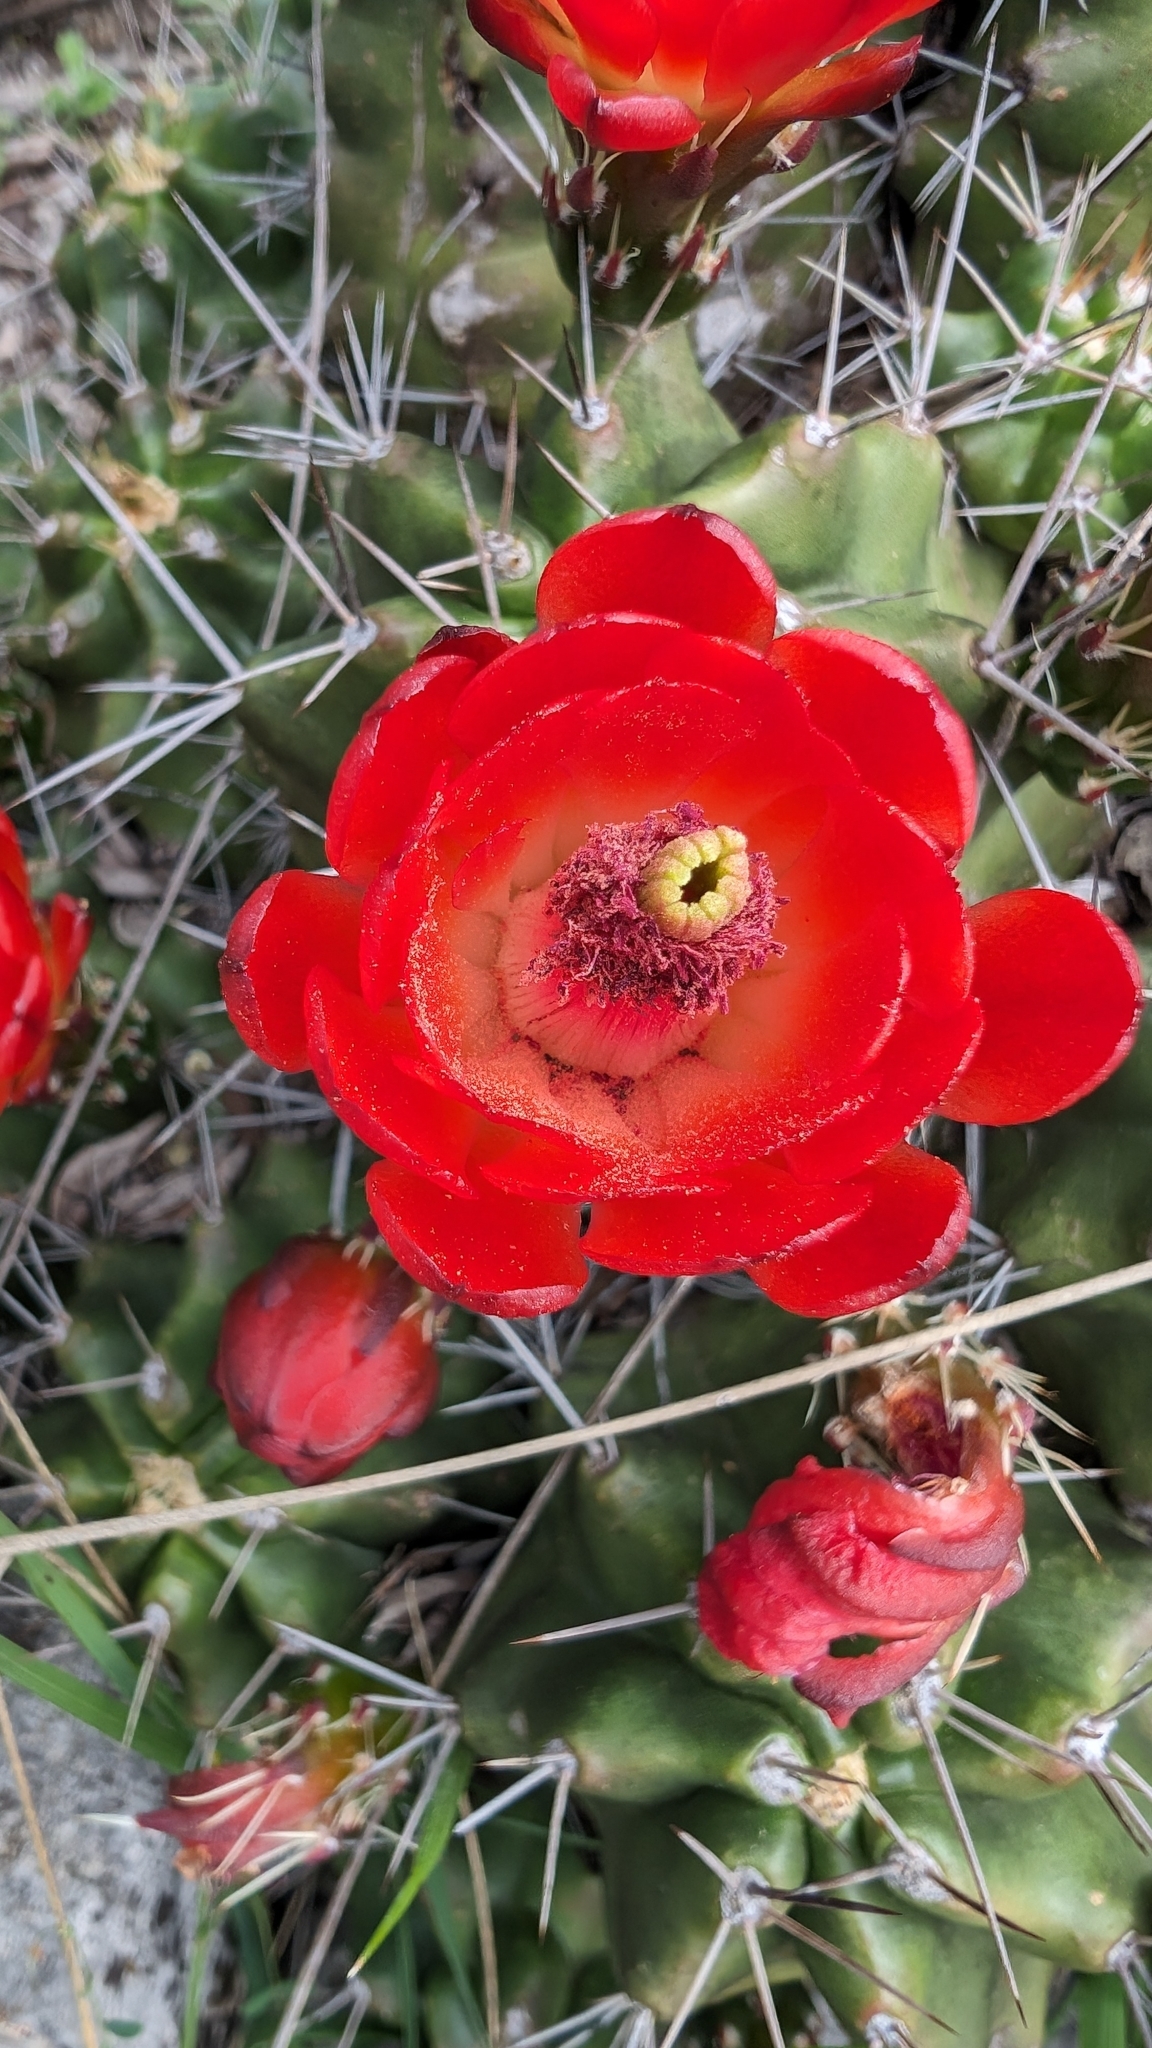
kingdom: Plantae
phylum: Tracheophyta
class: Magnoliopsida
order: Caryophyllales
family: Cactaceae
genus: Echinocereus
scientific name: Echinocereus coccineus
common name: Scarlet hedgehog cactus
